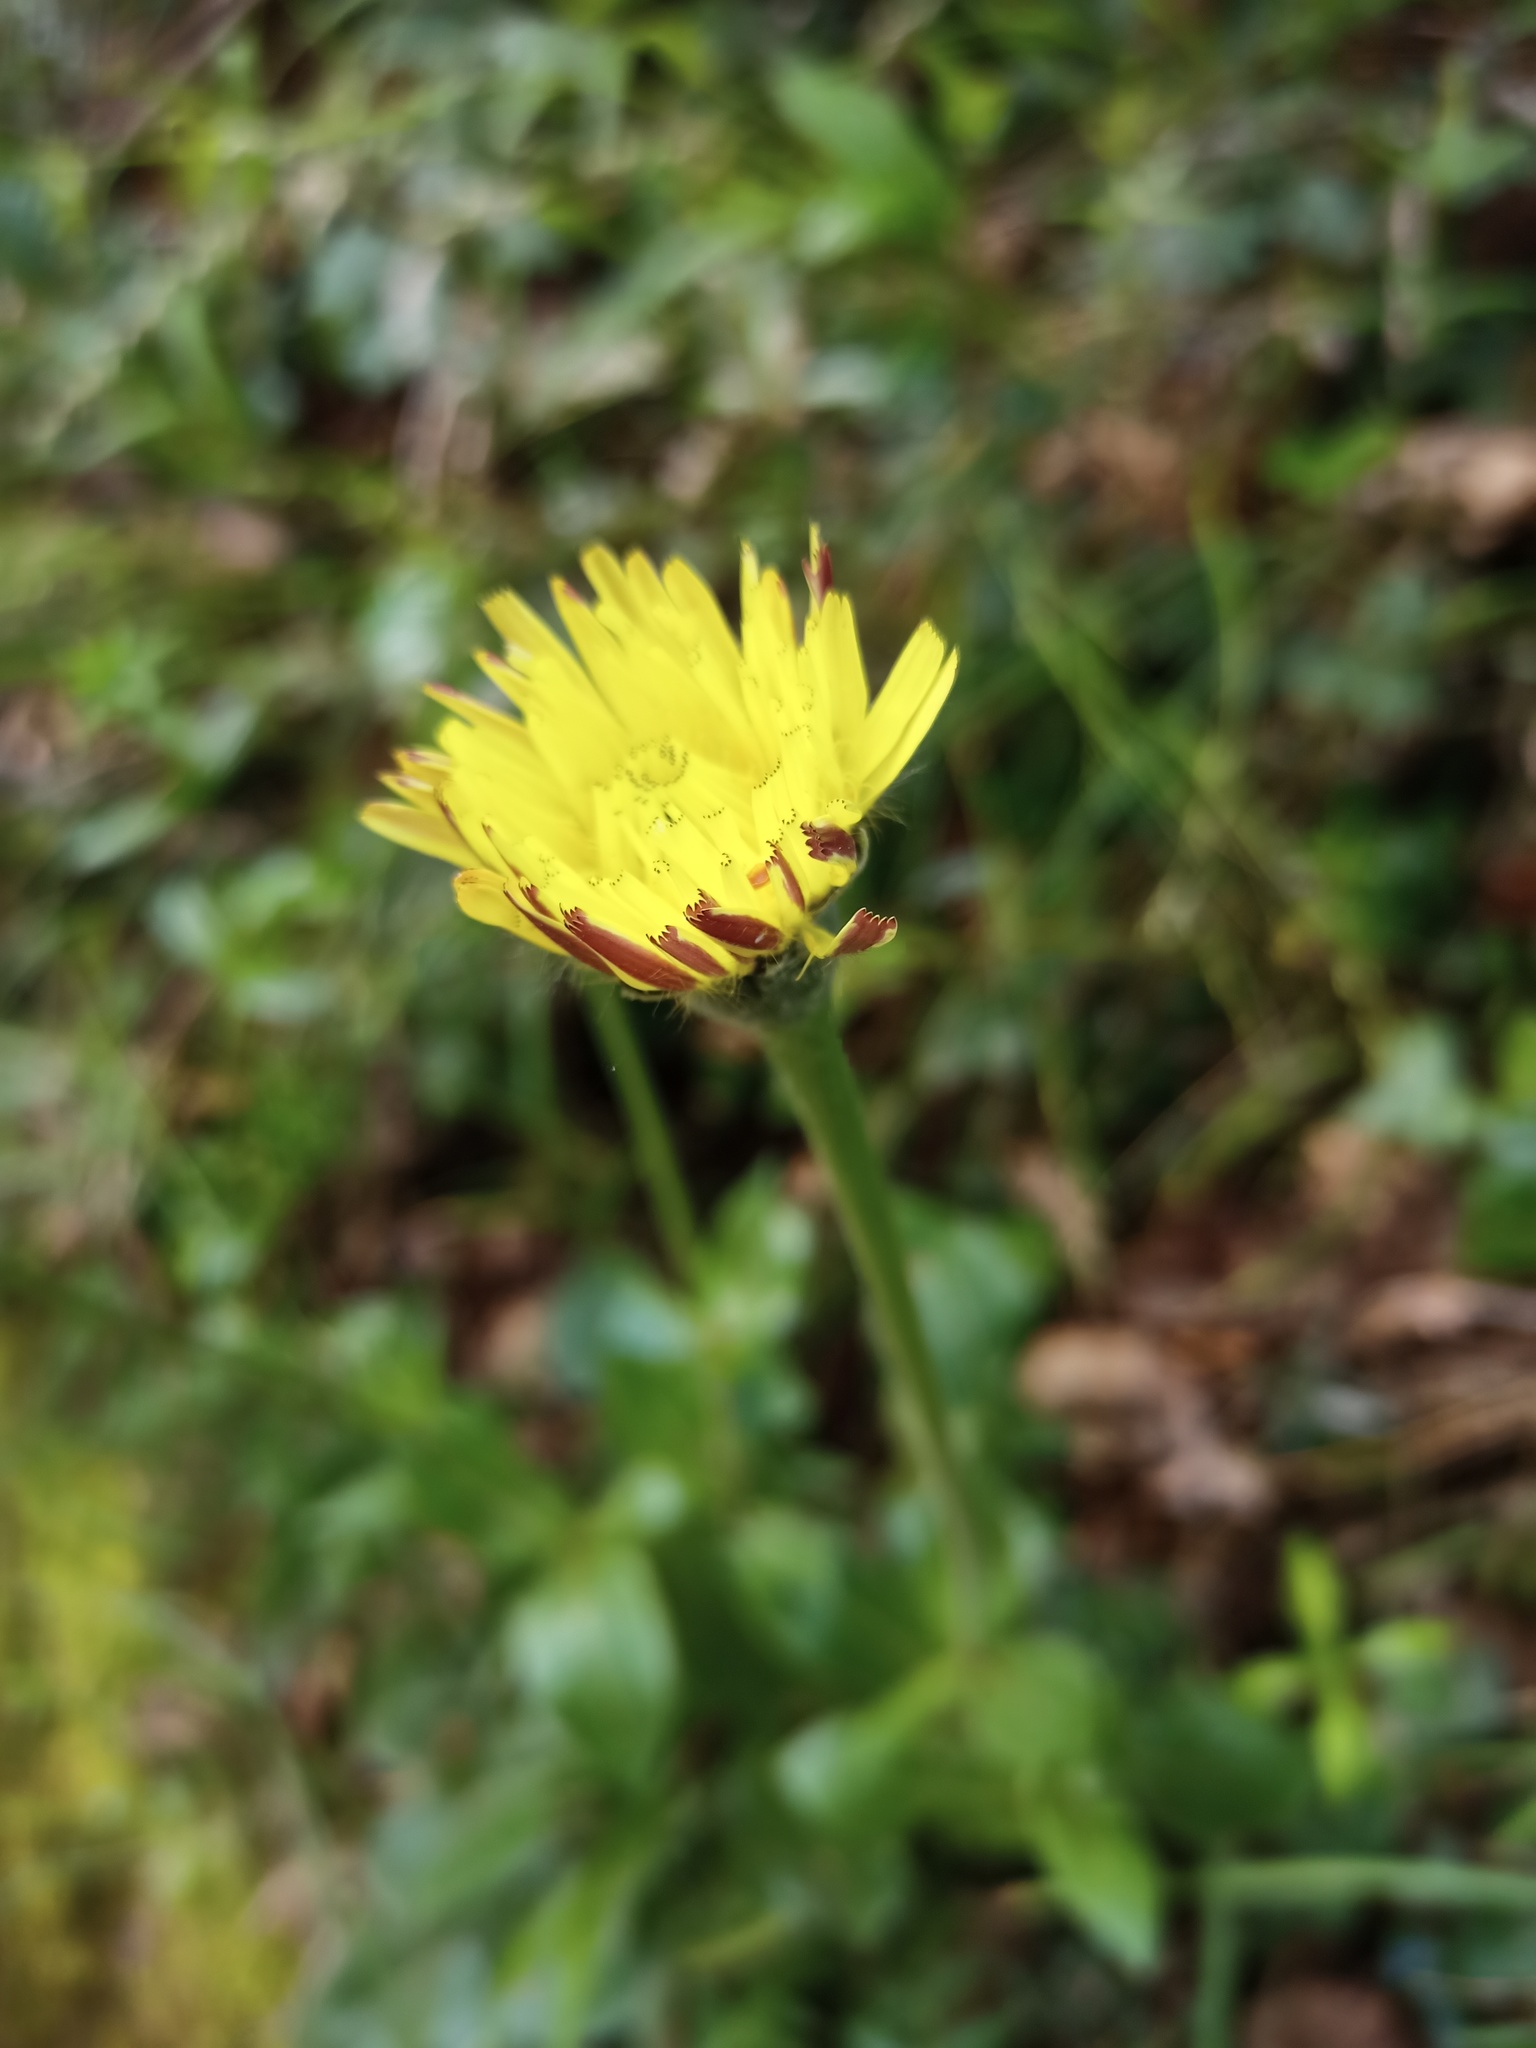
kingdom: Plantae
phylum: Tracheophyta
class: Magnoliopsida
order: Asterales
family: Asteraceae
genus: Urospermum
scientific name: Urospermum dalechampii
